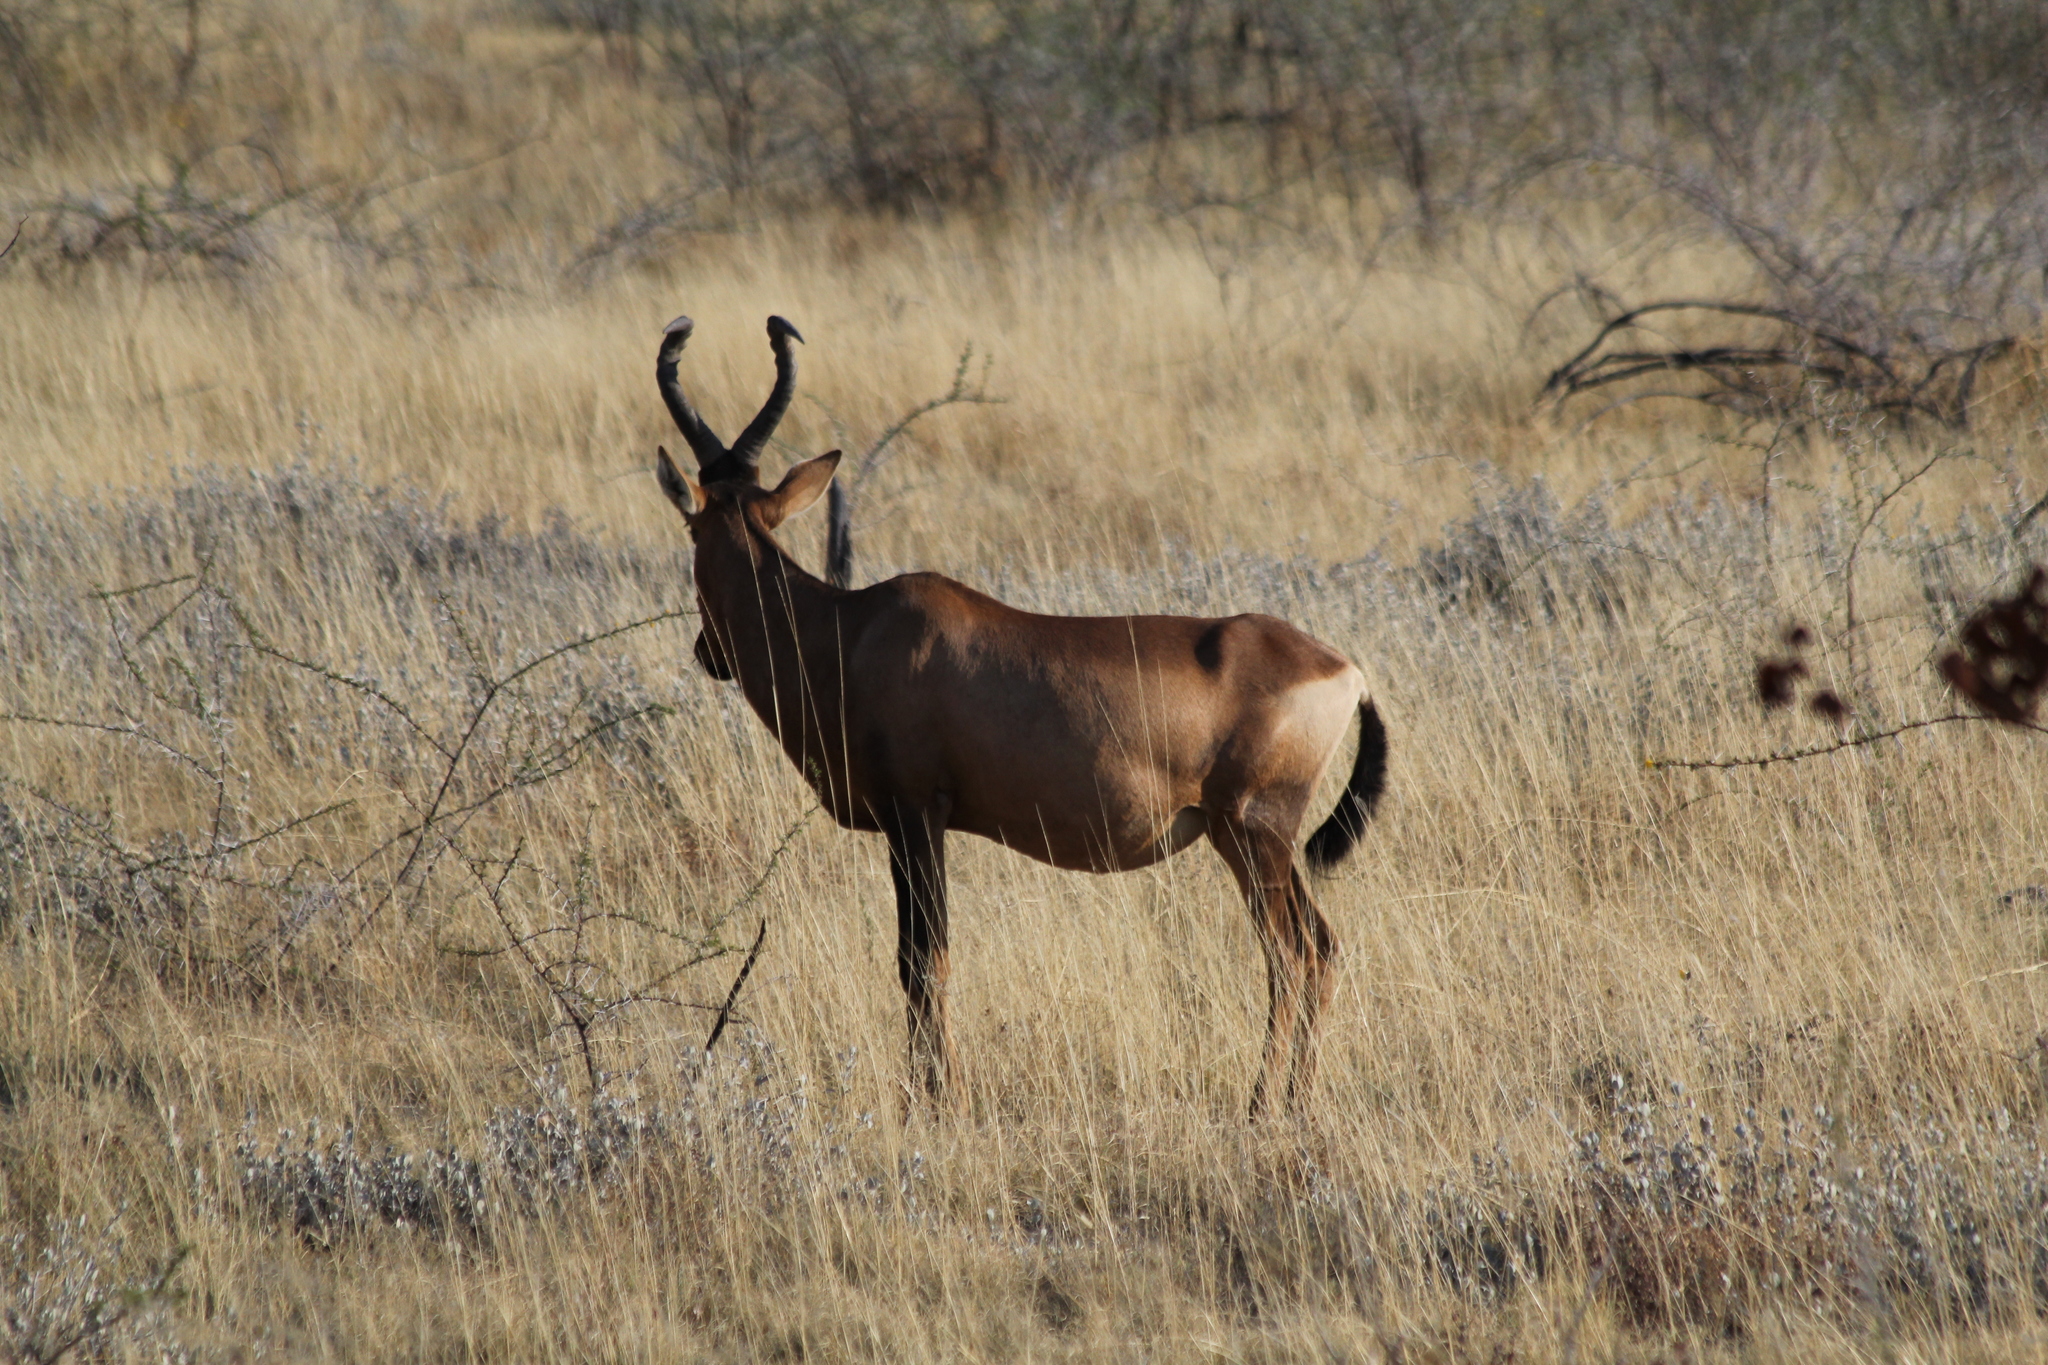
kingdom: Animalia
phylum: Chordata
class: Mammalia
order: Artiodactyla
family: Bovidae
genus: Alcelaphus
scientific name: Alcelaphus caama
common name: Red hartebeest
